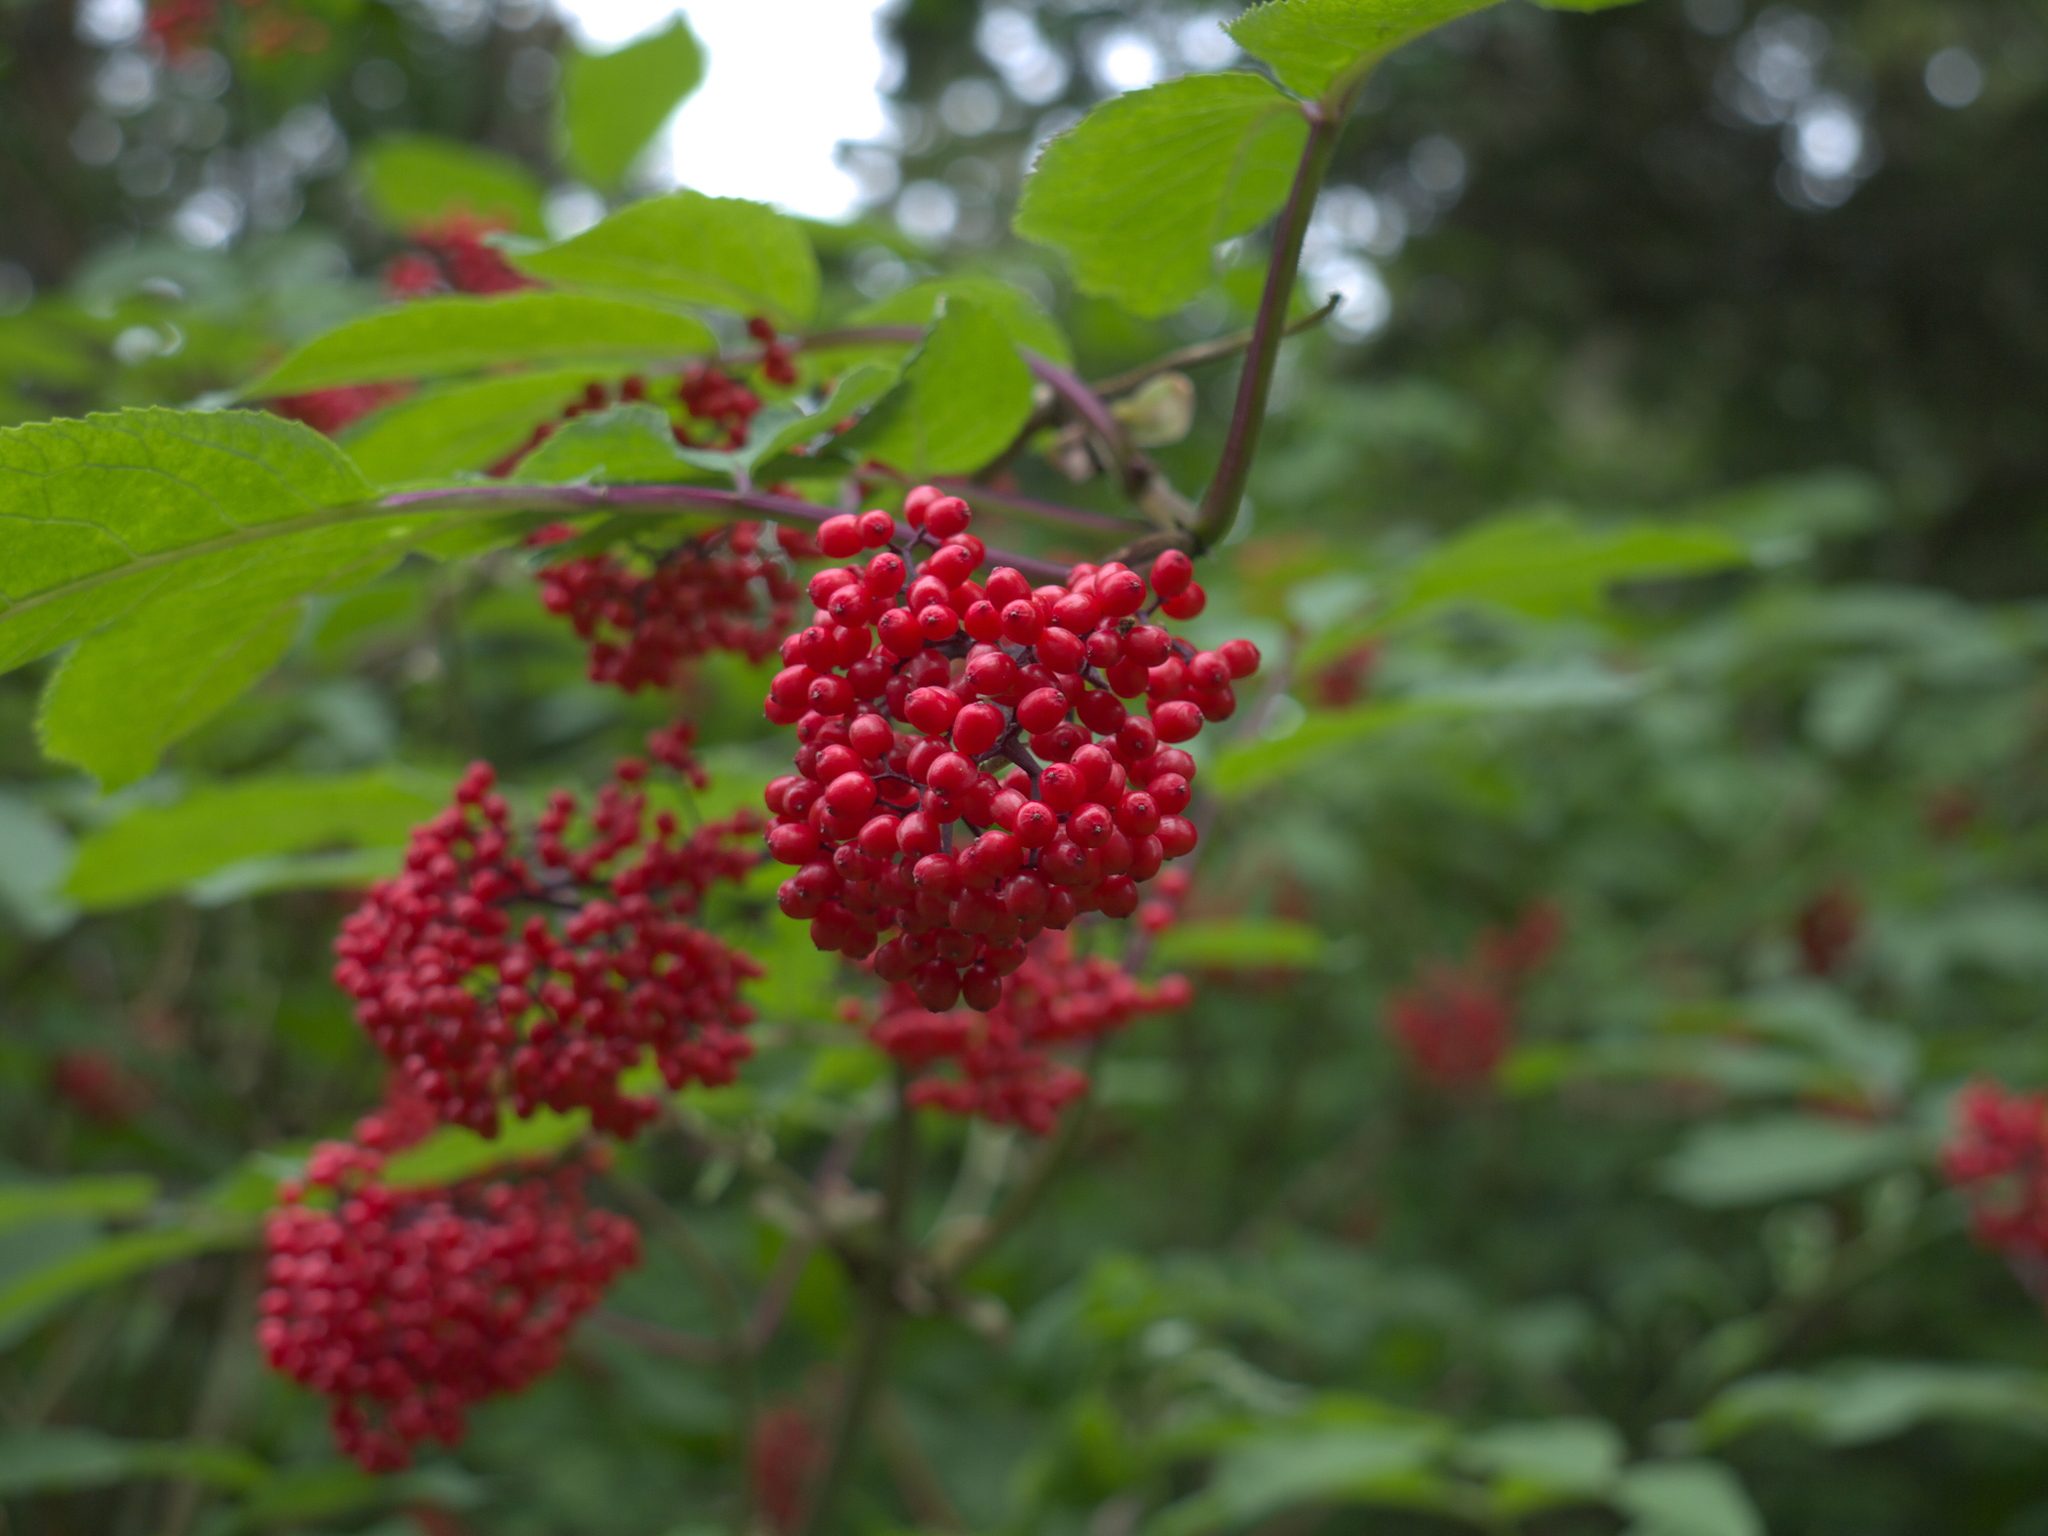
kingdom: Plantae
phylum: Tracheophyta
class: Magnoliopsida
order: Dipsacales
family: Viburnaceae
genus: Sambucus
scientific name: Sambucus racemosa
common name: Red-berried elder
